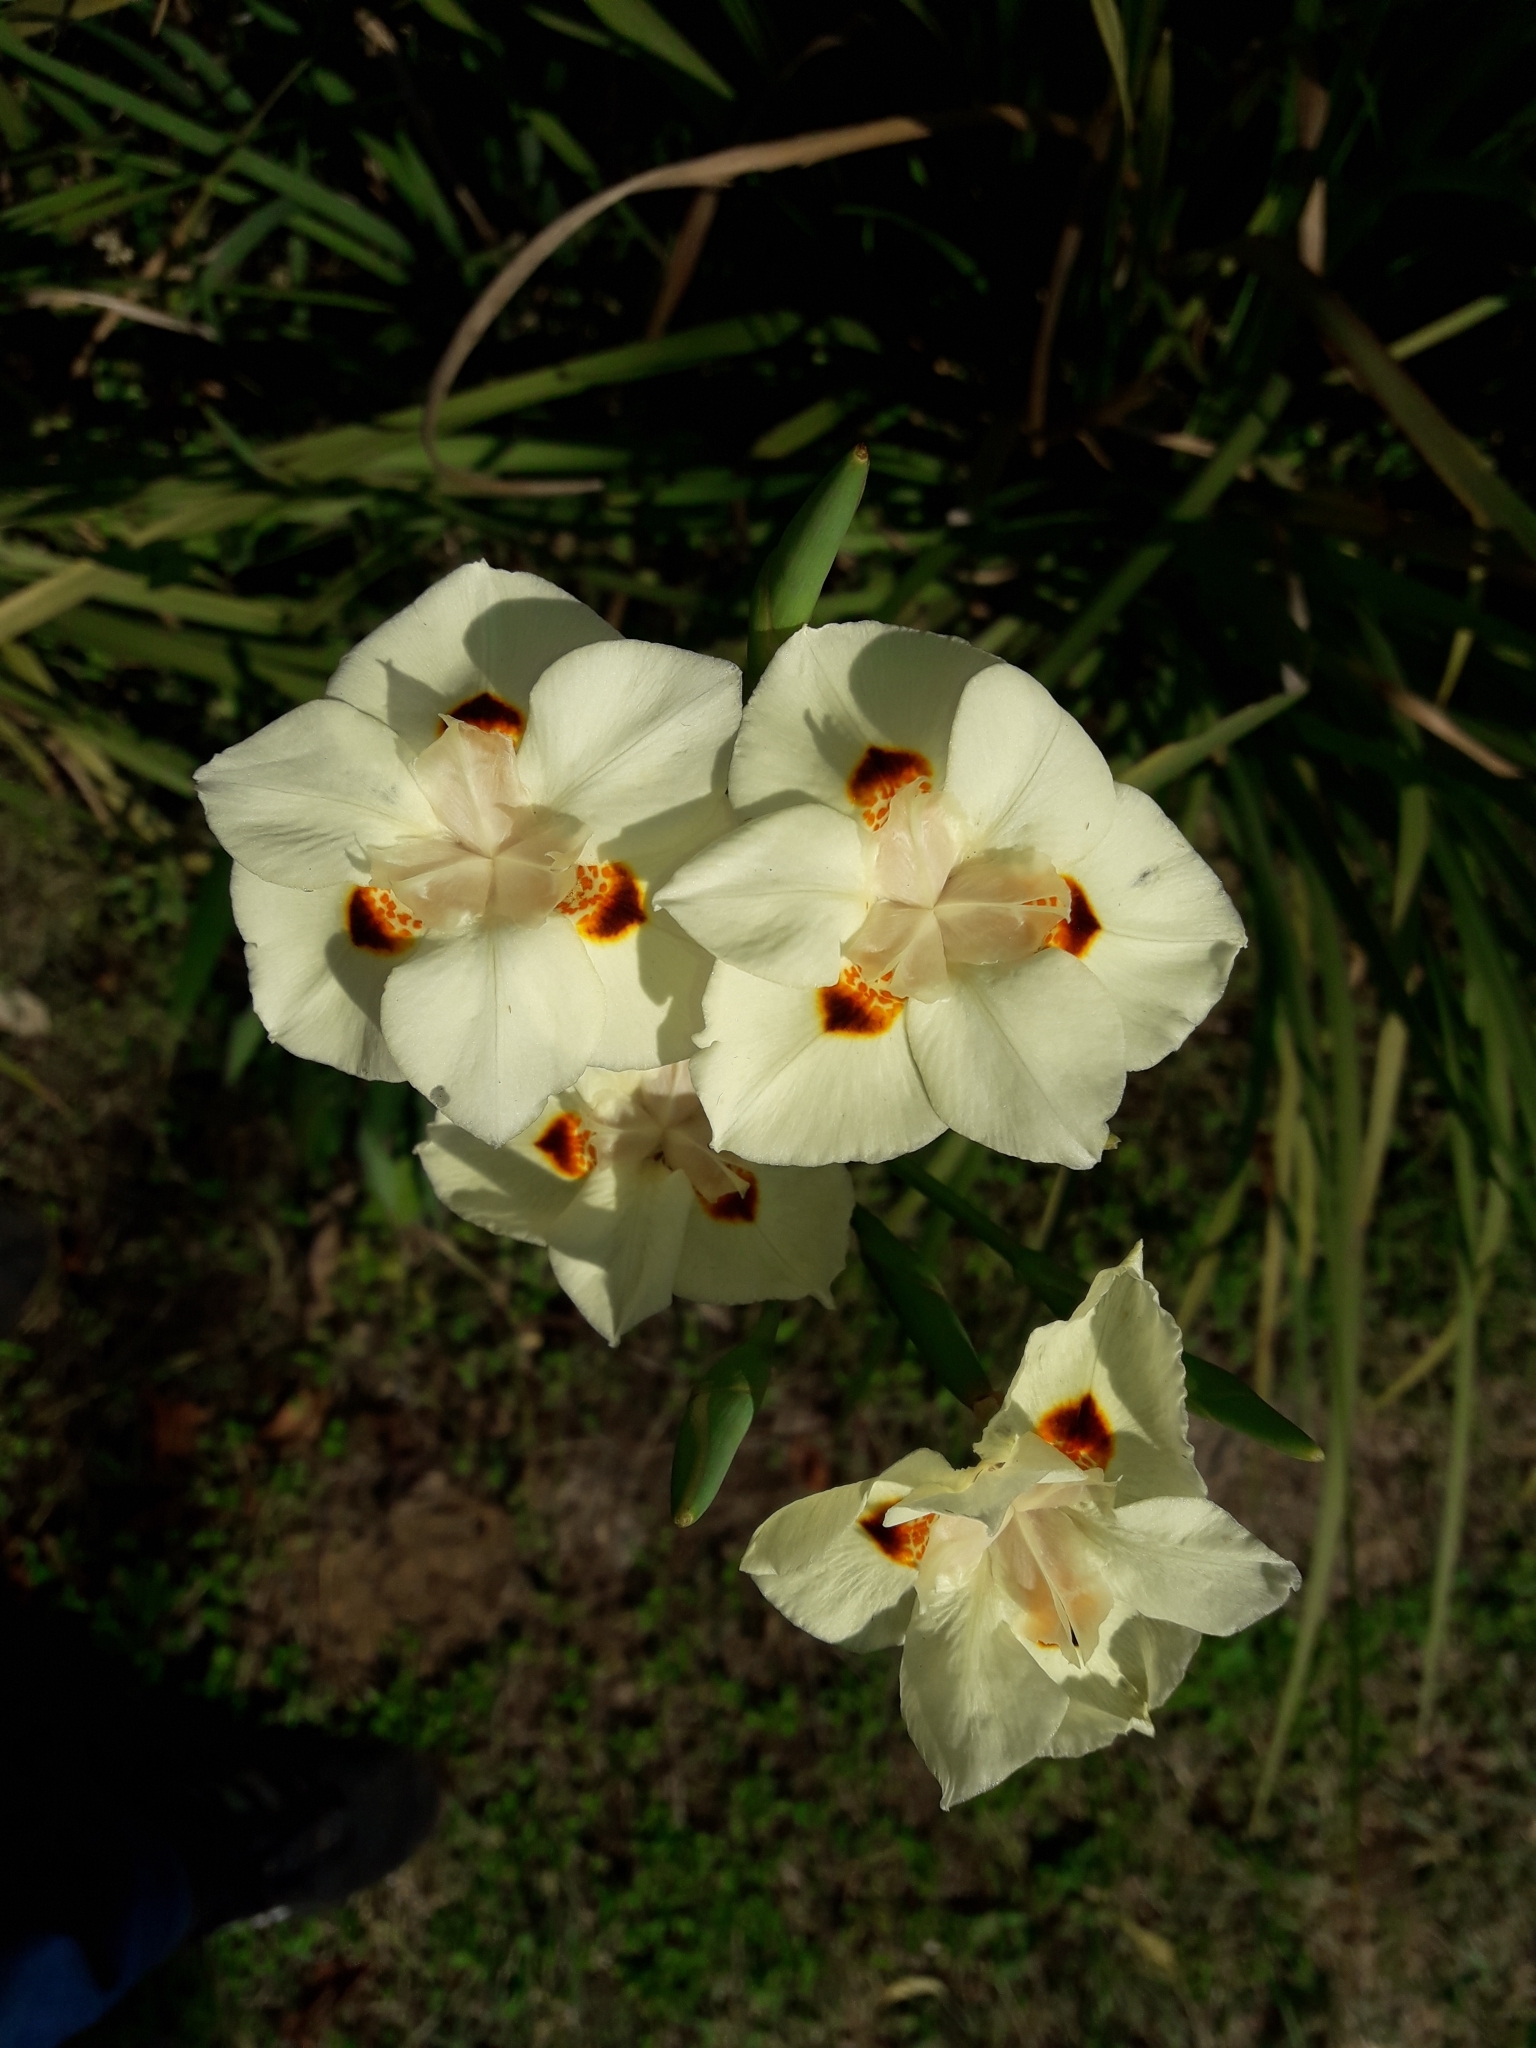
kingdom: Plantae
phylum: Tracheophyta
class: Liliopsida
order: Asparagales
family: Iridaceae
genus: Dietes
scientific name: Dietes bicolor
